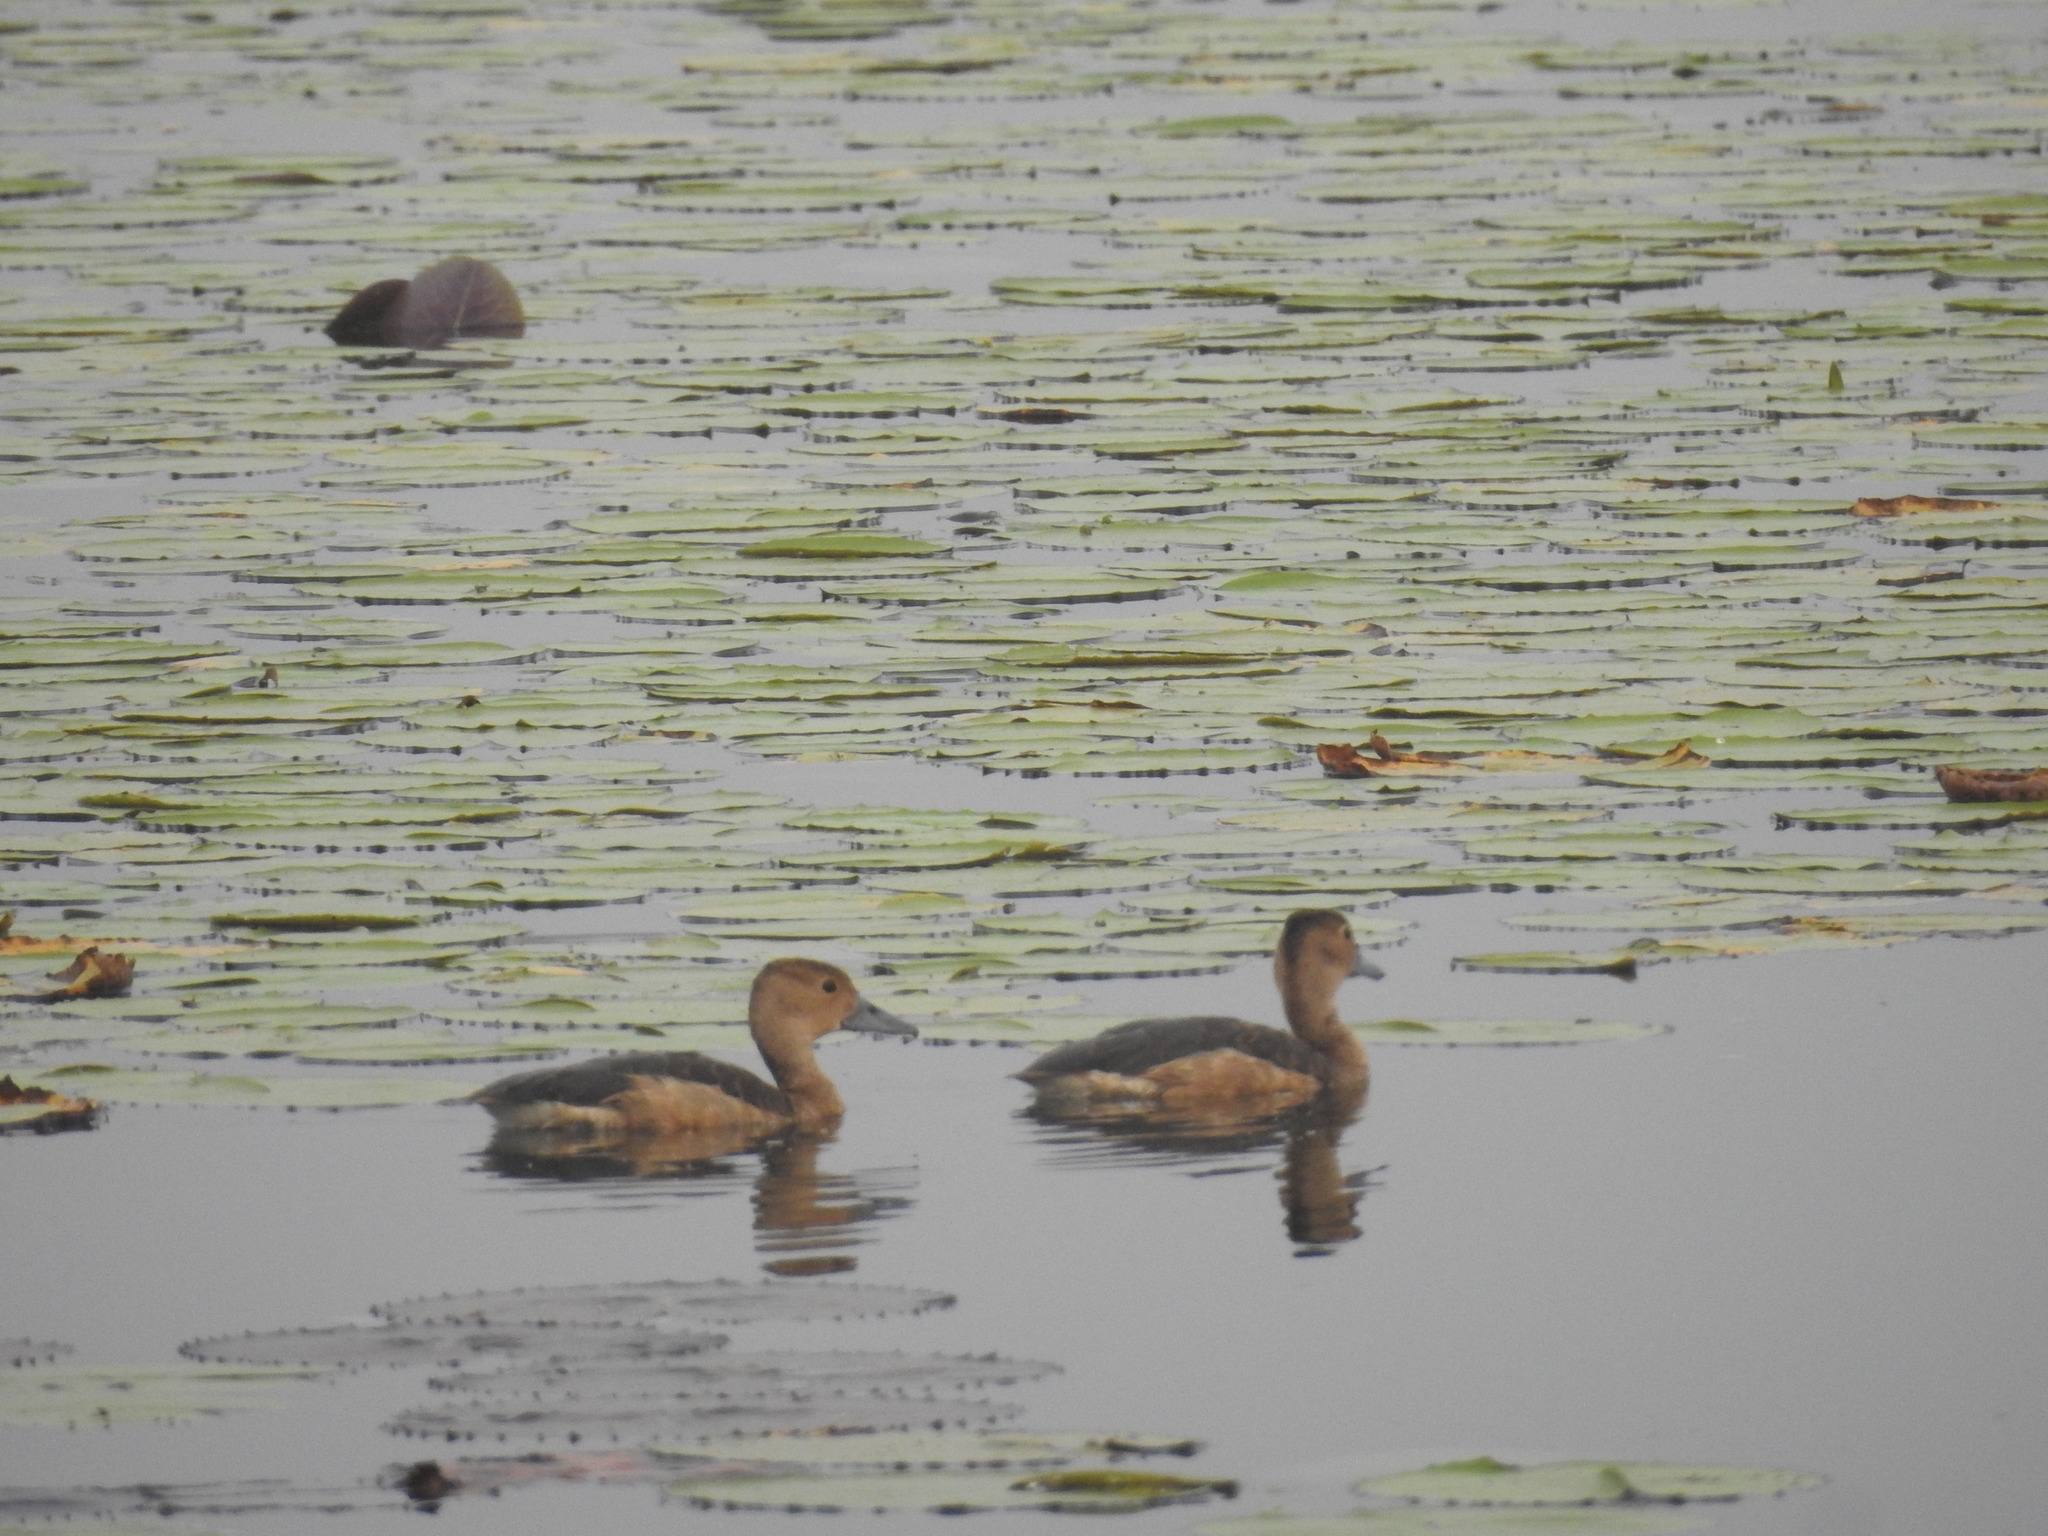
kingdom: Animalia
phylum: Chordata
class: Aves
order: Anseriformes
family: Anatidae
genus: Dendrocygna
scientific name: Dendrocygna javanica
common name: Lesser whistling-duck
